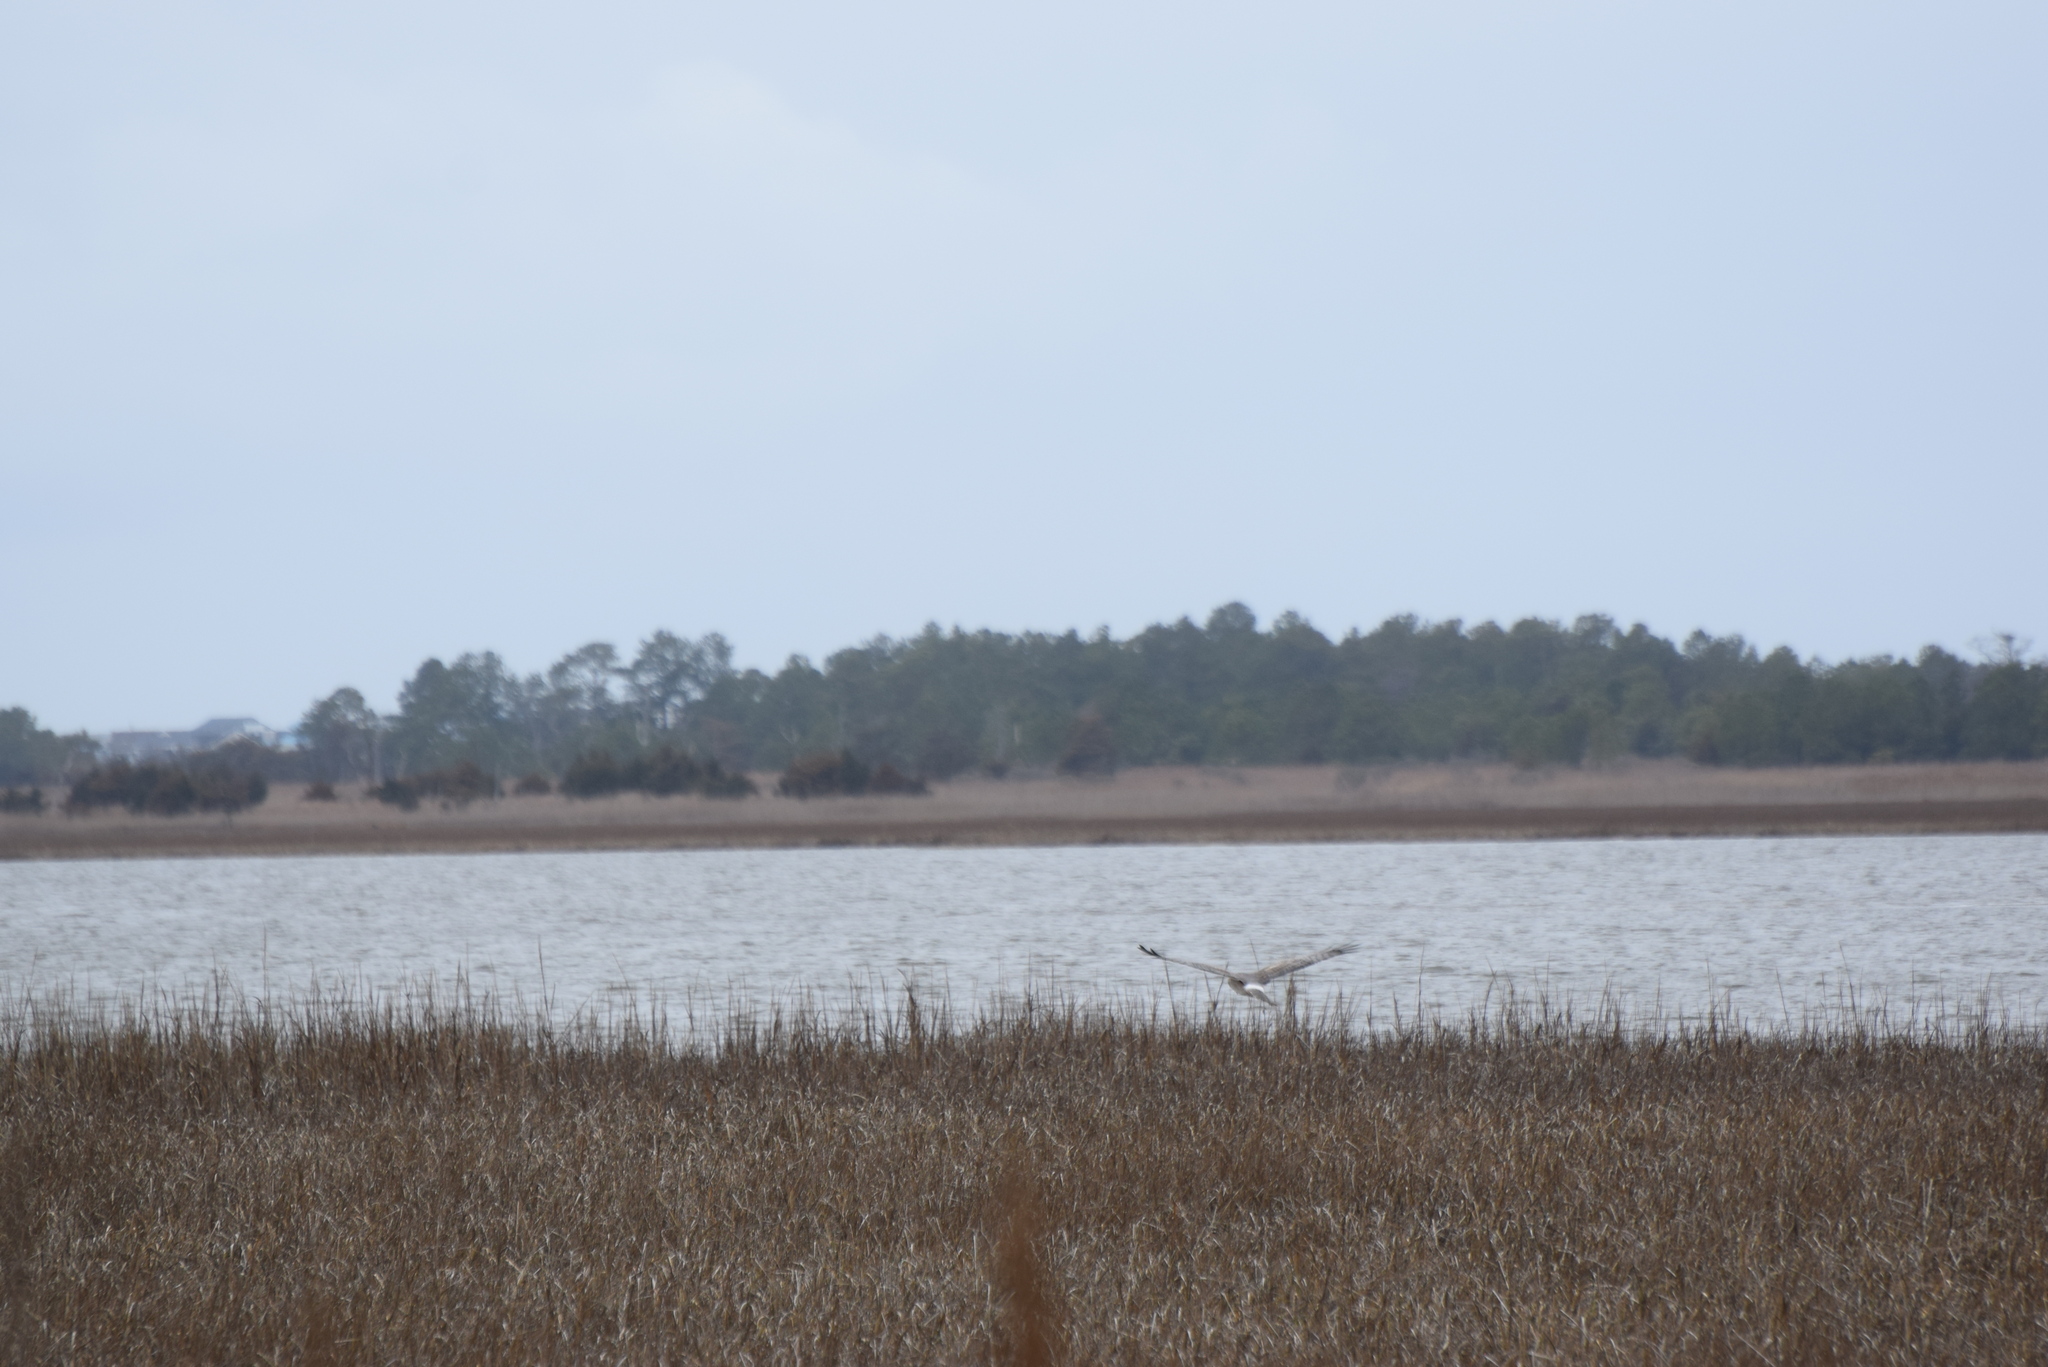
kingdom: Animalia
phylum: Chordata
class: Aves
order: Accipitriformes
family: Accipitridae
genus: Circus
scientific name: Circus cyaneus
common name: Hen harrier
